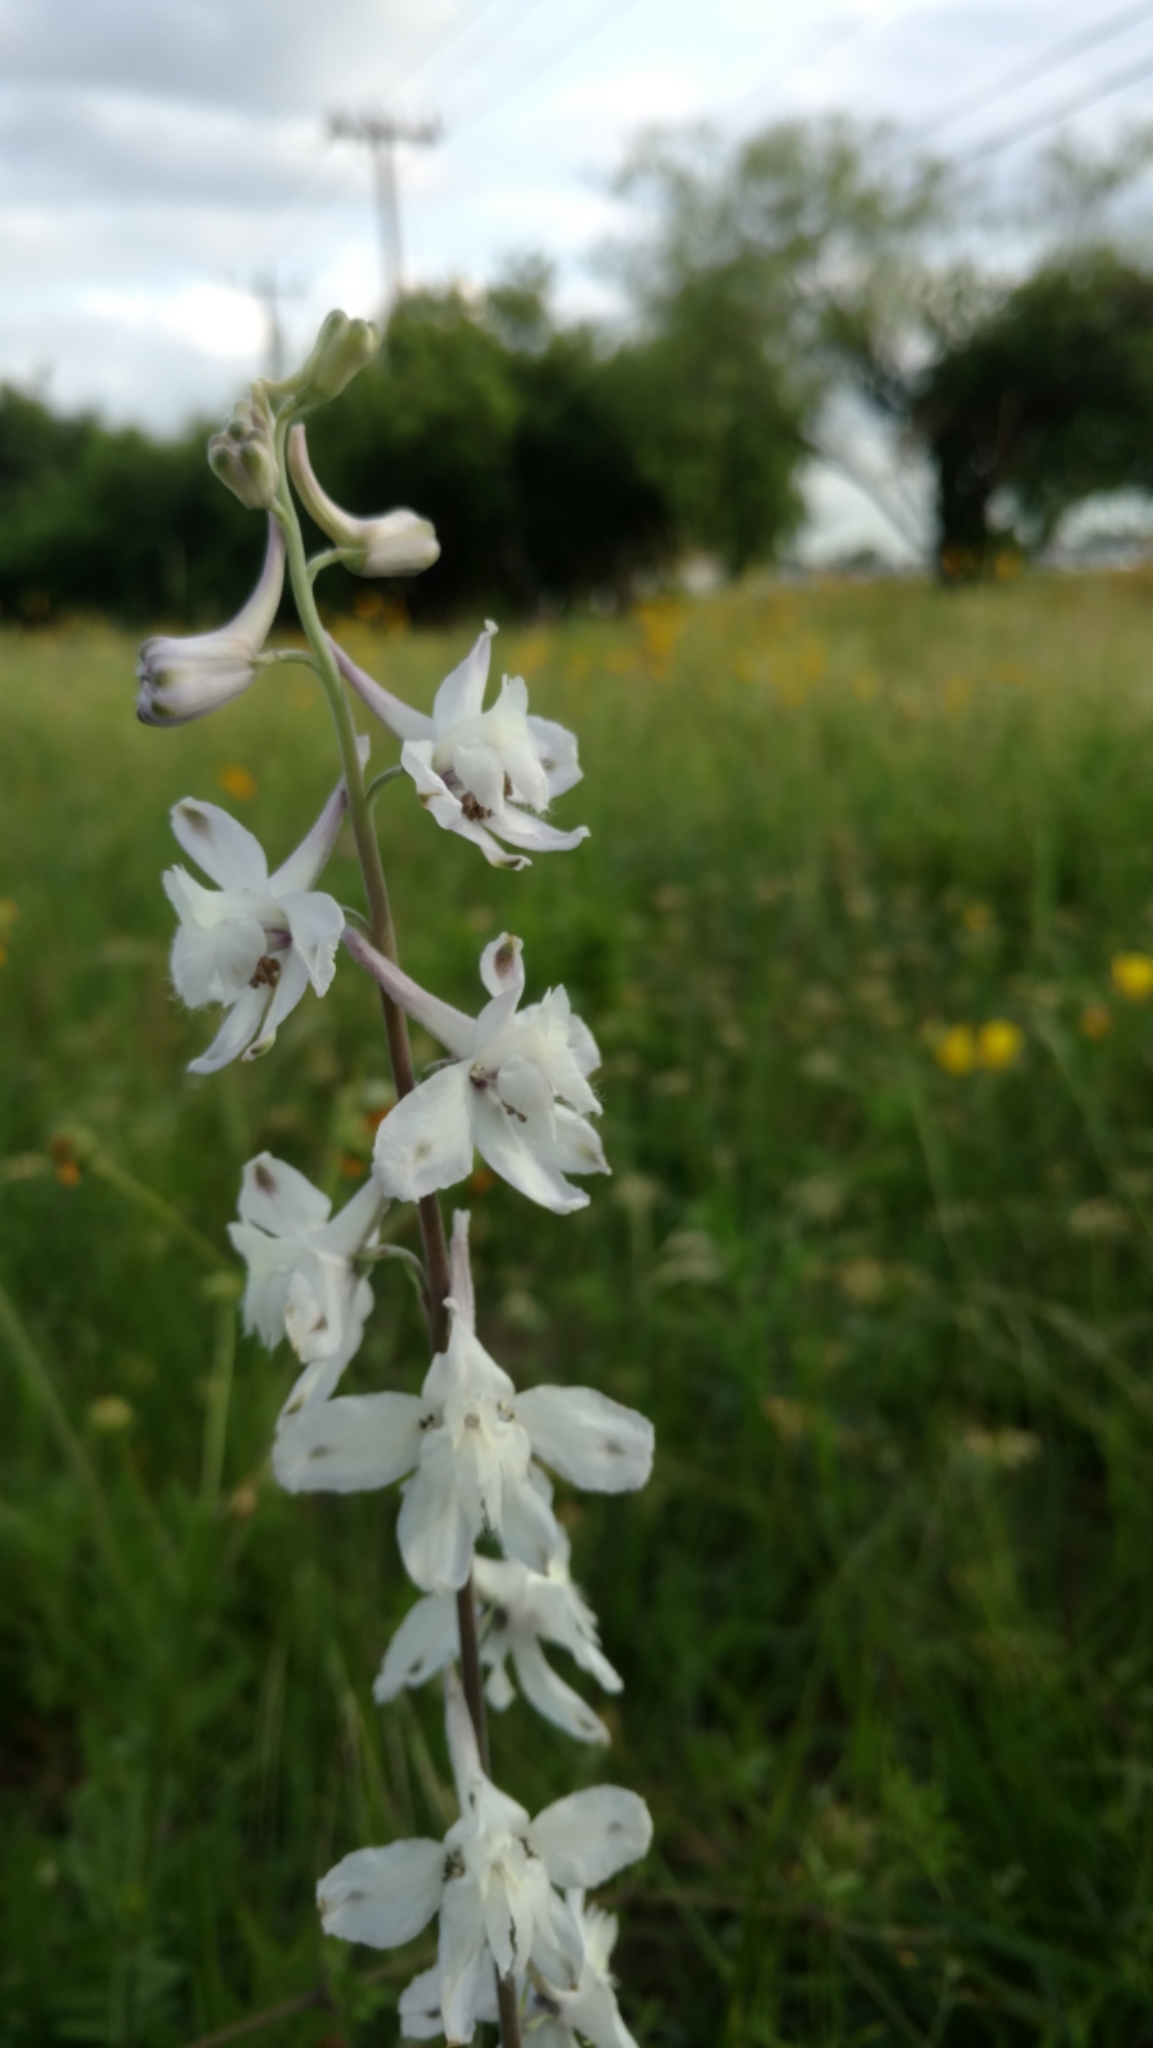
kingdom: Plantae
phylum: Tracheophyta
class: Magnoliopsida
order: Ranunculales
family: Ranunculaceae
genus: Delphinium
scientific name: Delphinium carolinianum
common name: Carolina larkspur
